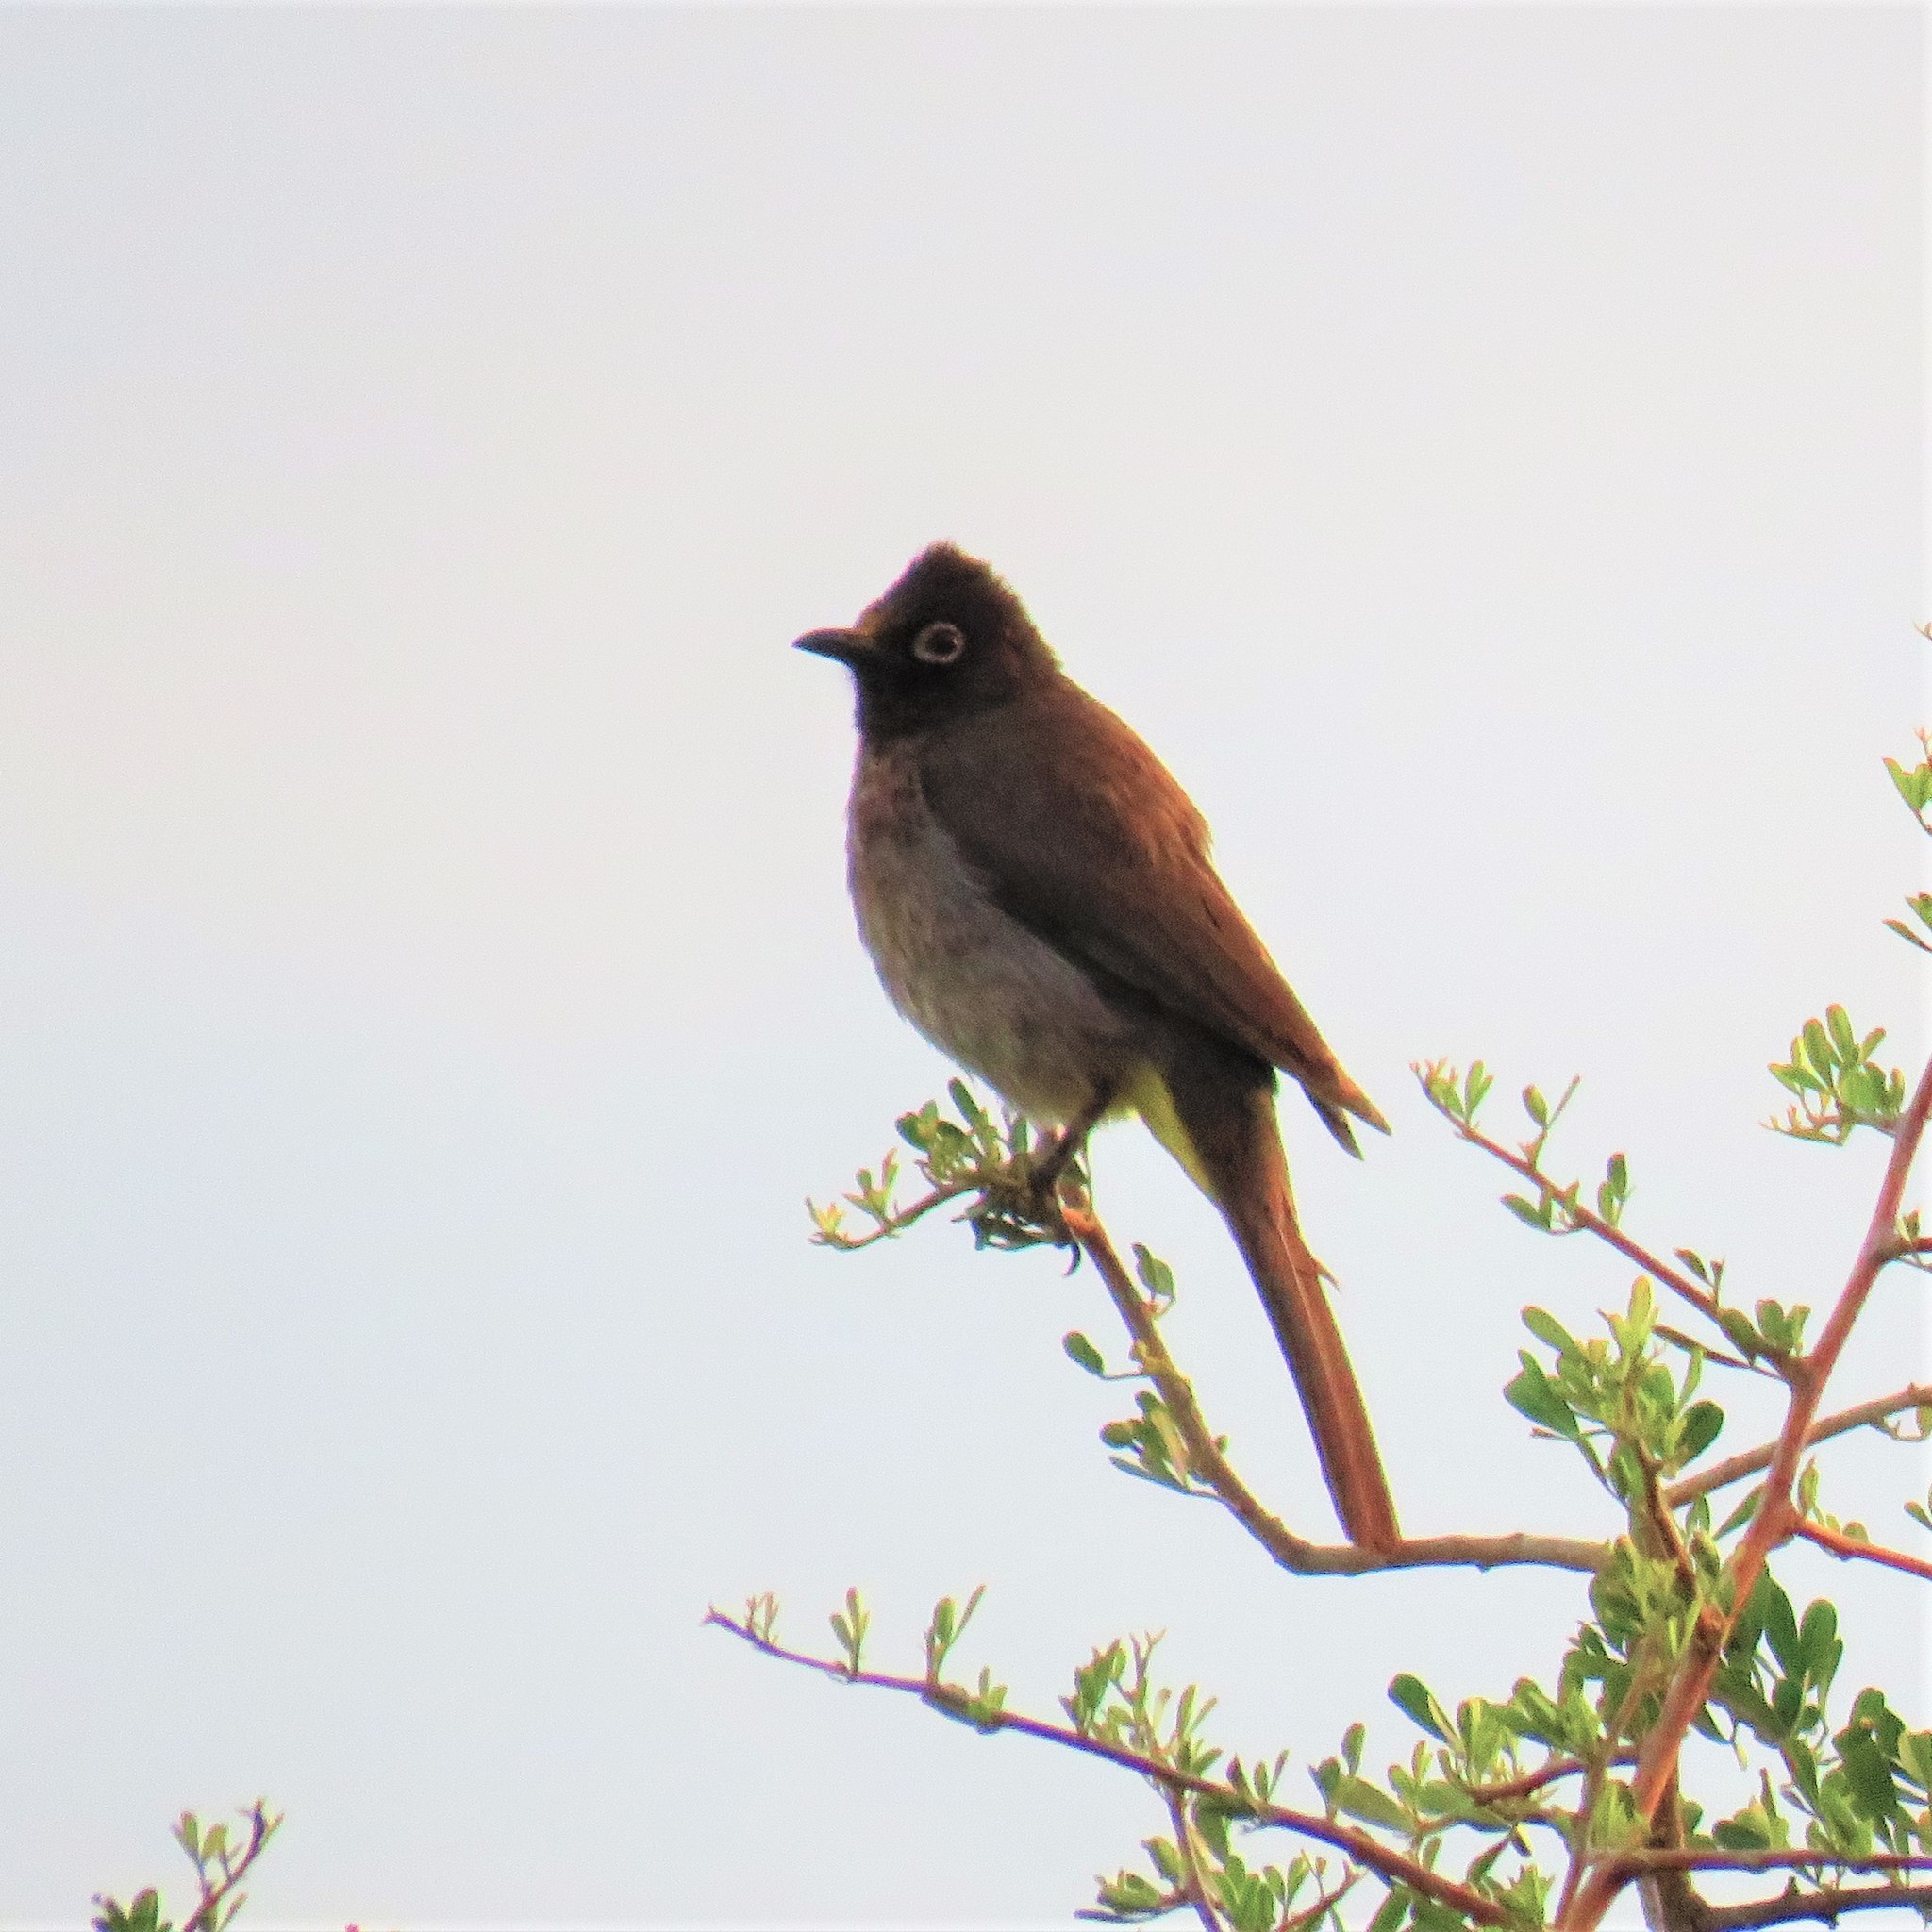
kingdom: Animalia
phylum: Chordata
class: Aves
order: Passeriformes
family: Pycnonotidae
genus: Pycnonotus
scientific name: Pycnonotus capensis
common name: Cape bulbul
